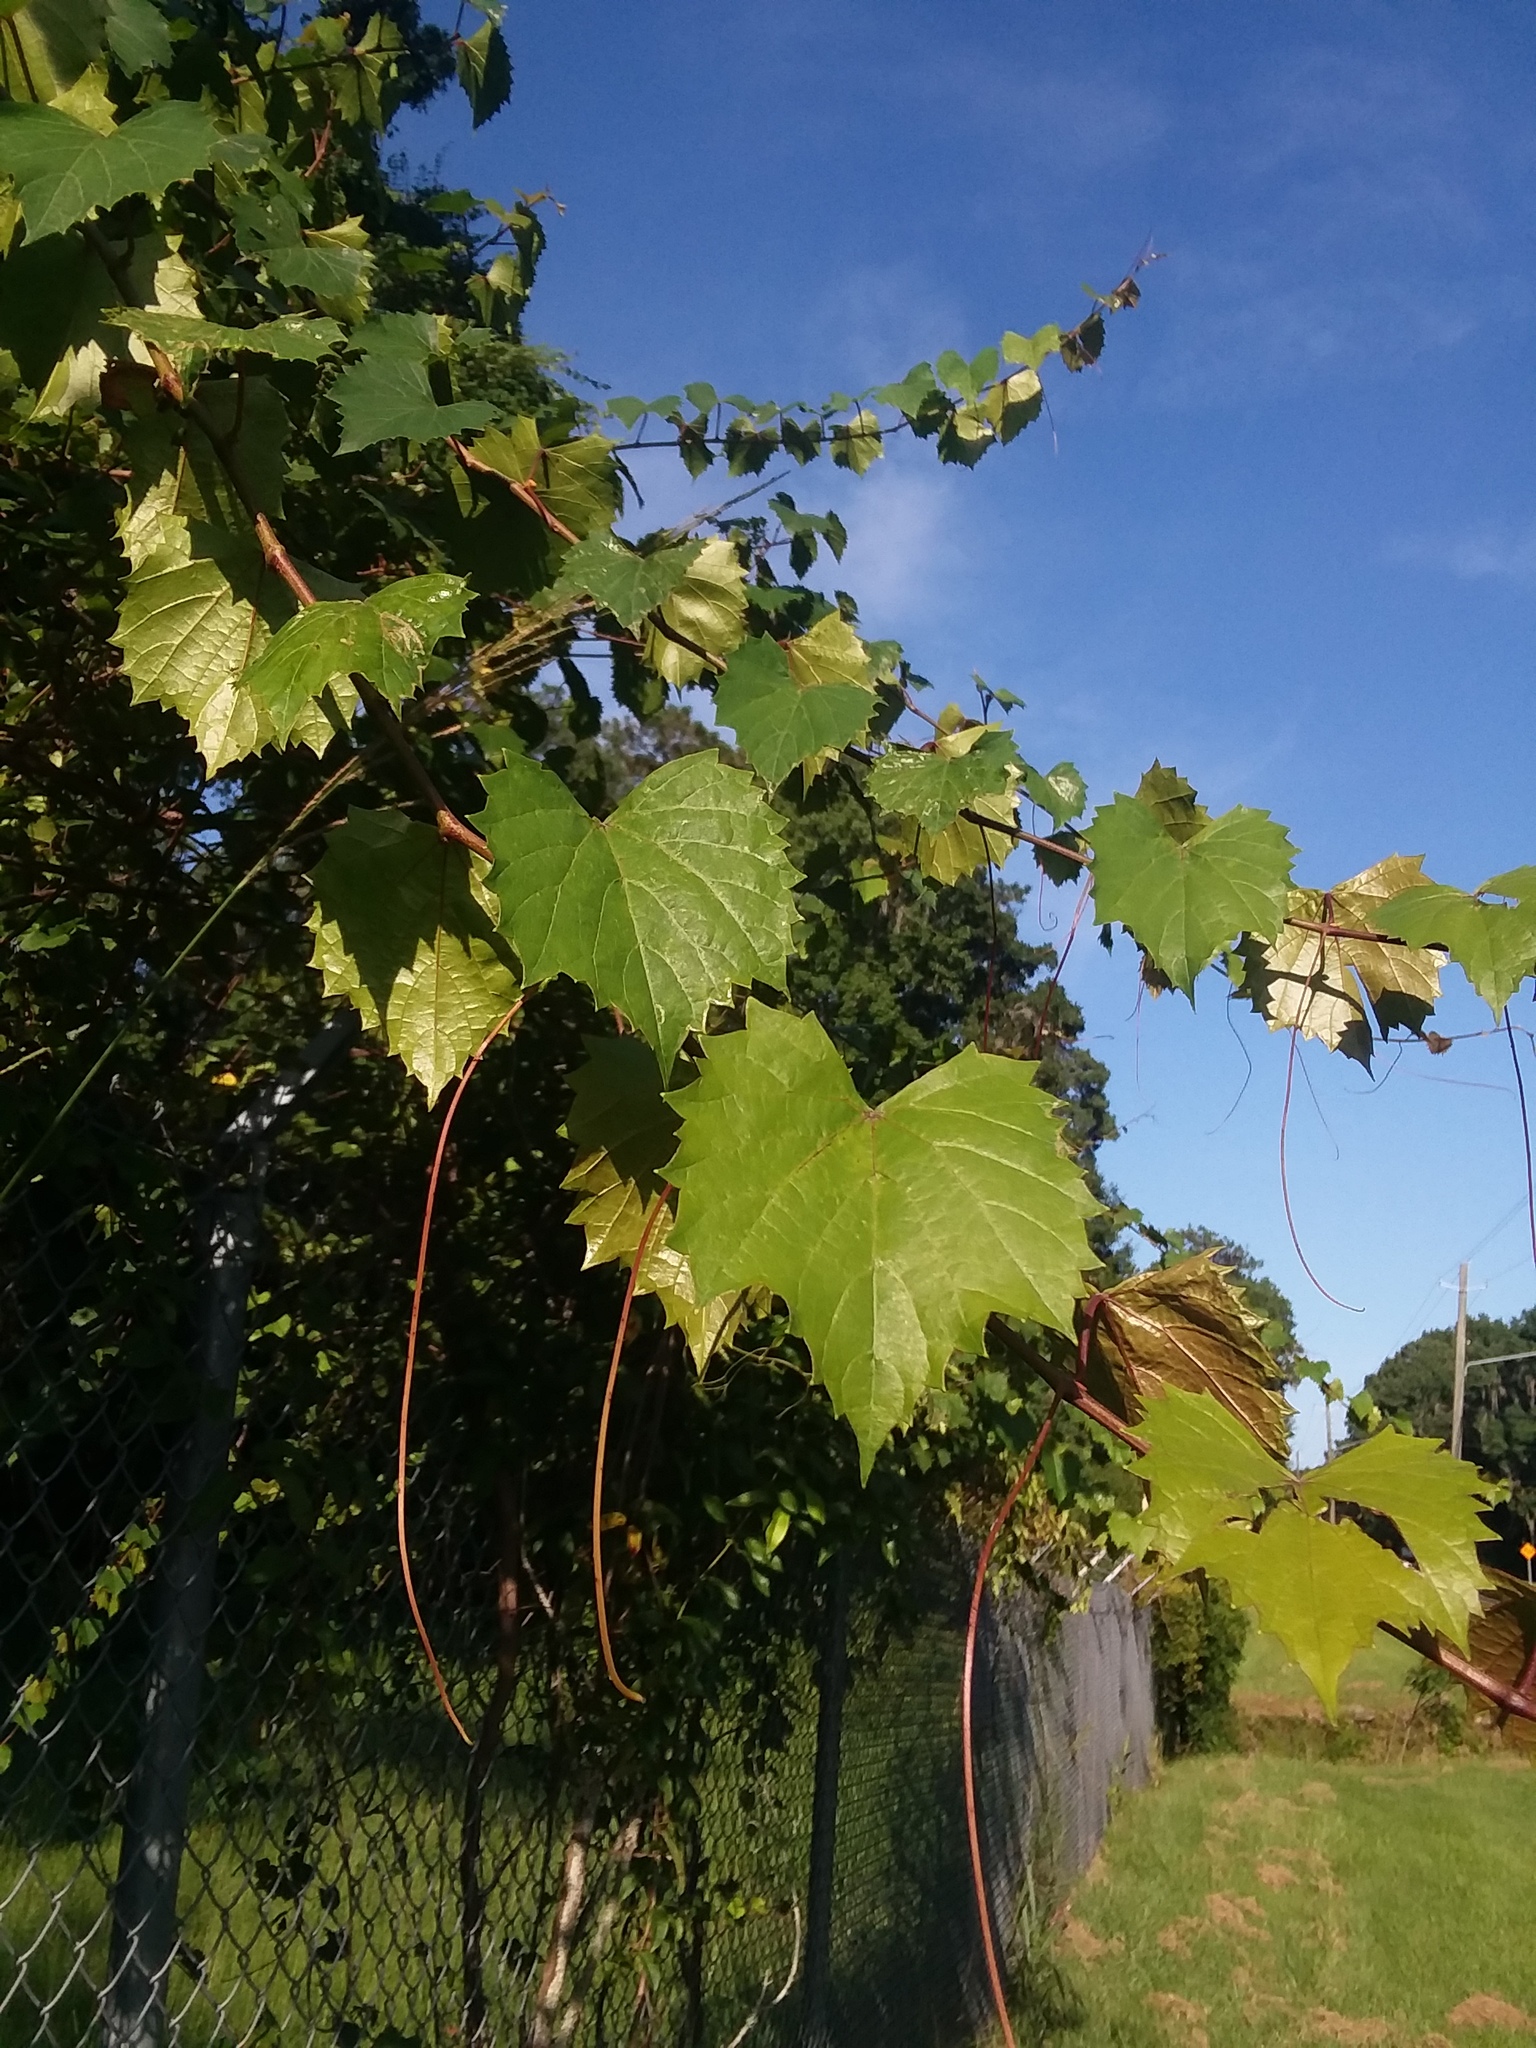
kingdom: Plantae
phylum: Tracheophyta
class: Magnoliopsida
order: Vitales
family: Vitaceae
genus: Vitis
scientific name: Vitis rotundifolia
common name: Muscadine grape
